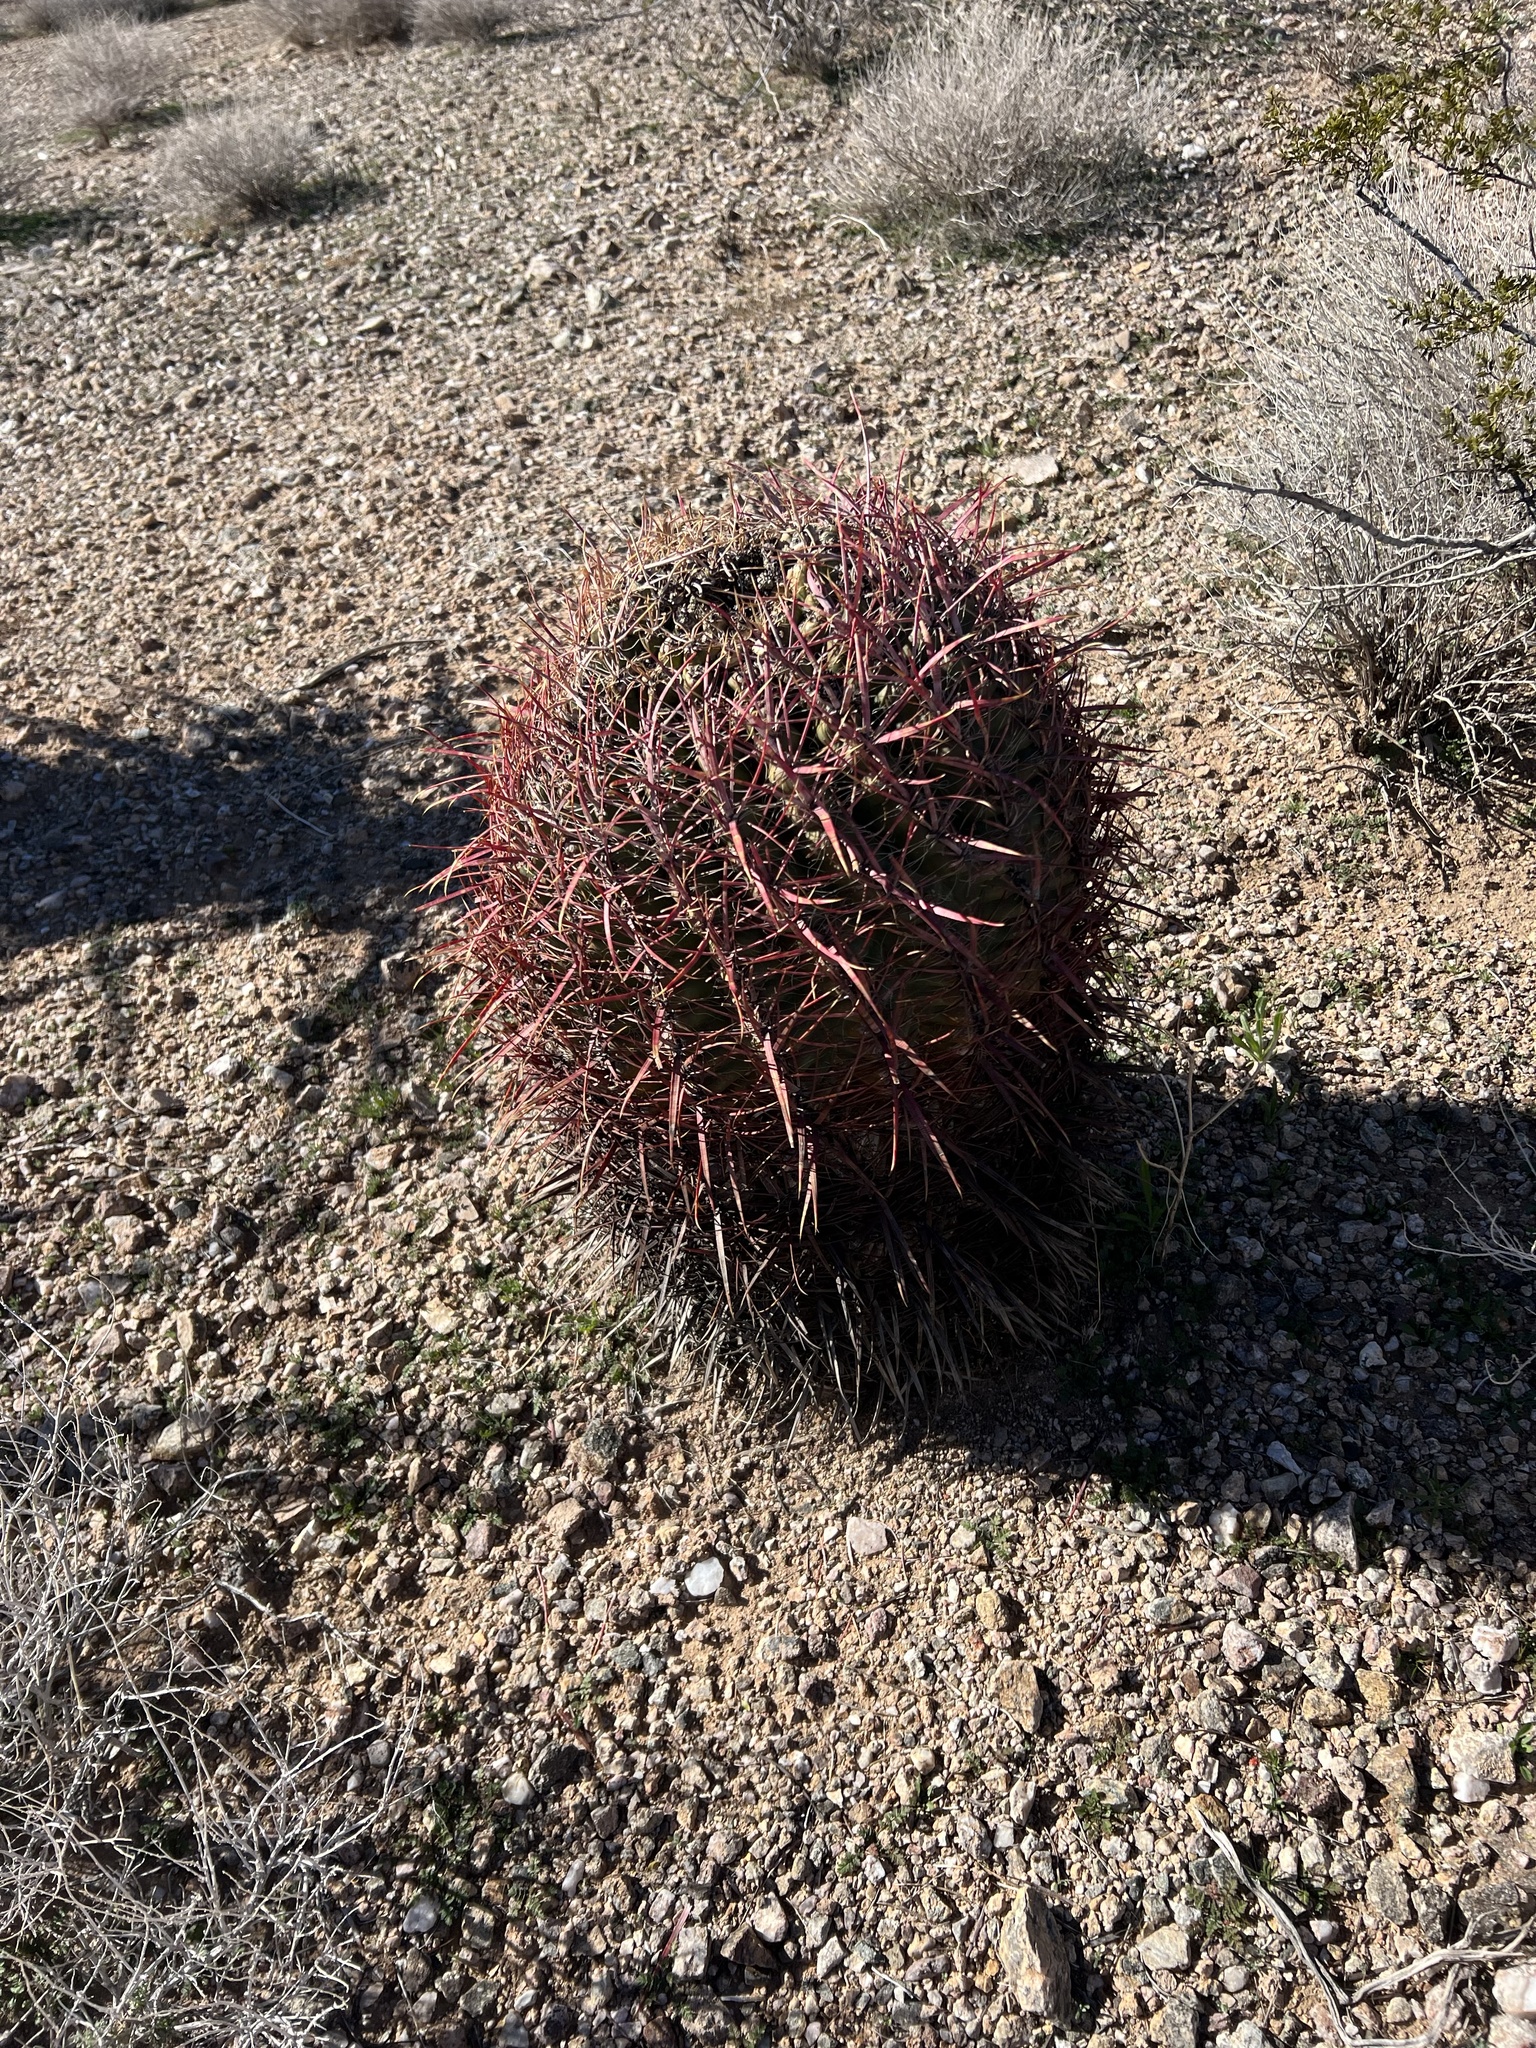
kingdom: Plantae
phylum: Tracheophyta
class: Magnoliopsida
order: Caryophyllales
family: Cactaceae
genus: Ferocactus
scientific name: Ferocactus cylindraceus
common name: California barrel cactus
